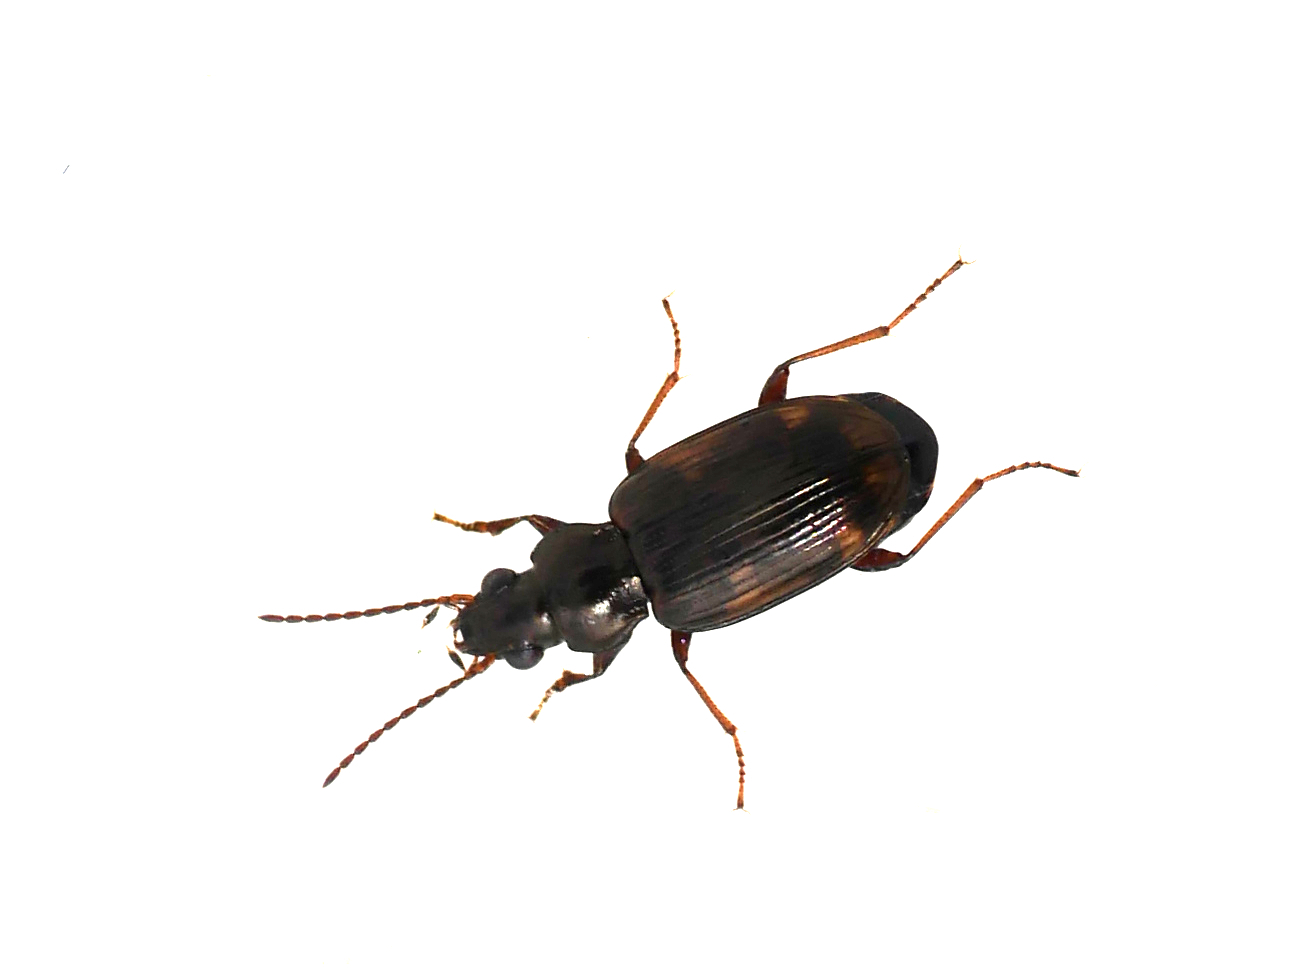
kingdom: Animalia
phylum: Arthropoda
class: Insecta
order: Coleoptera
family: Carabidae
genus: Bembidion
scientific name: Bembidion varium
